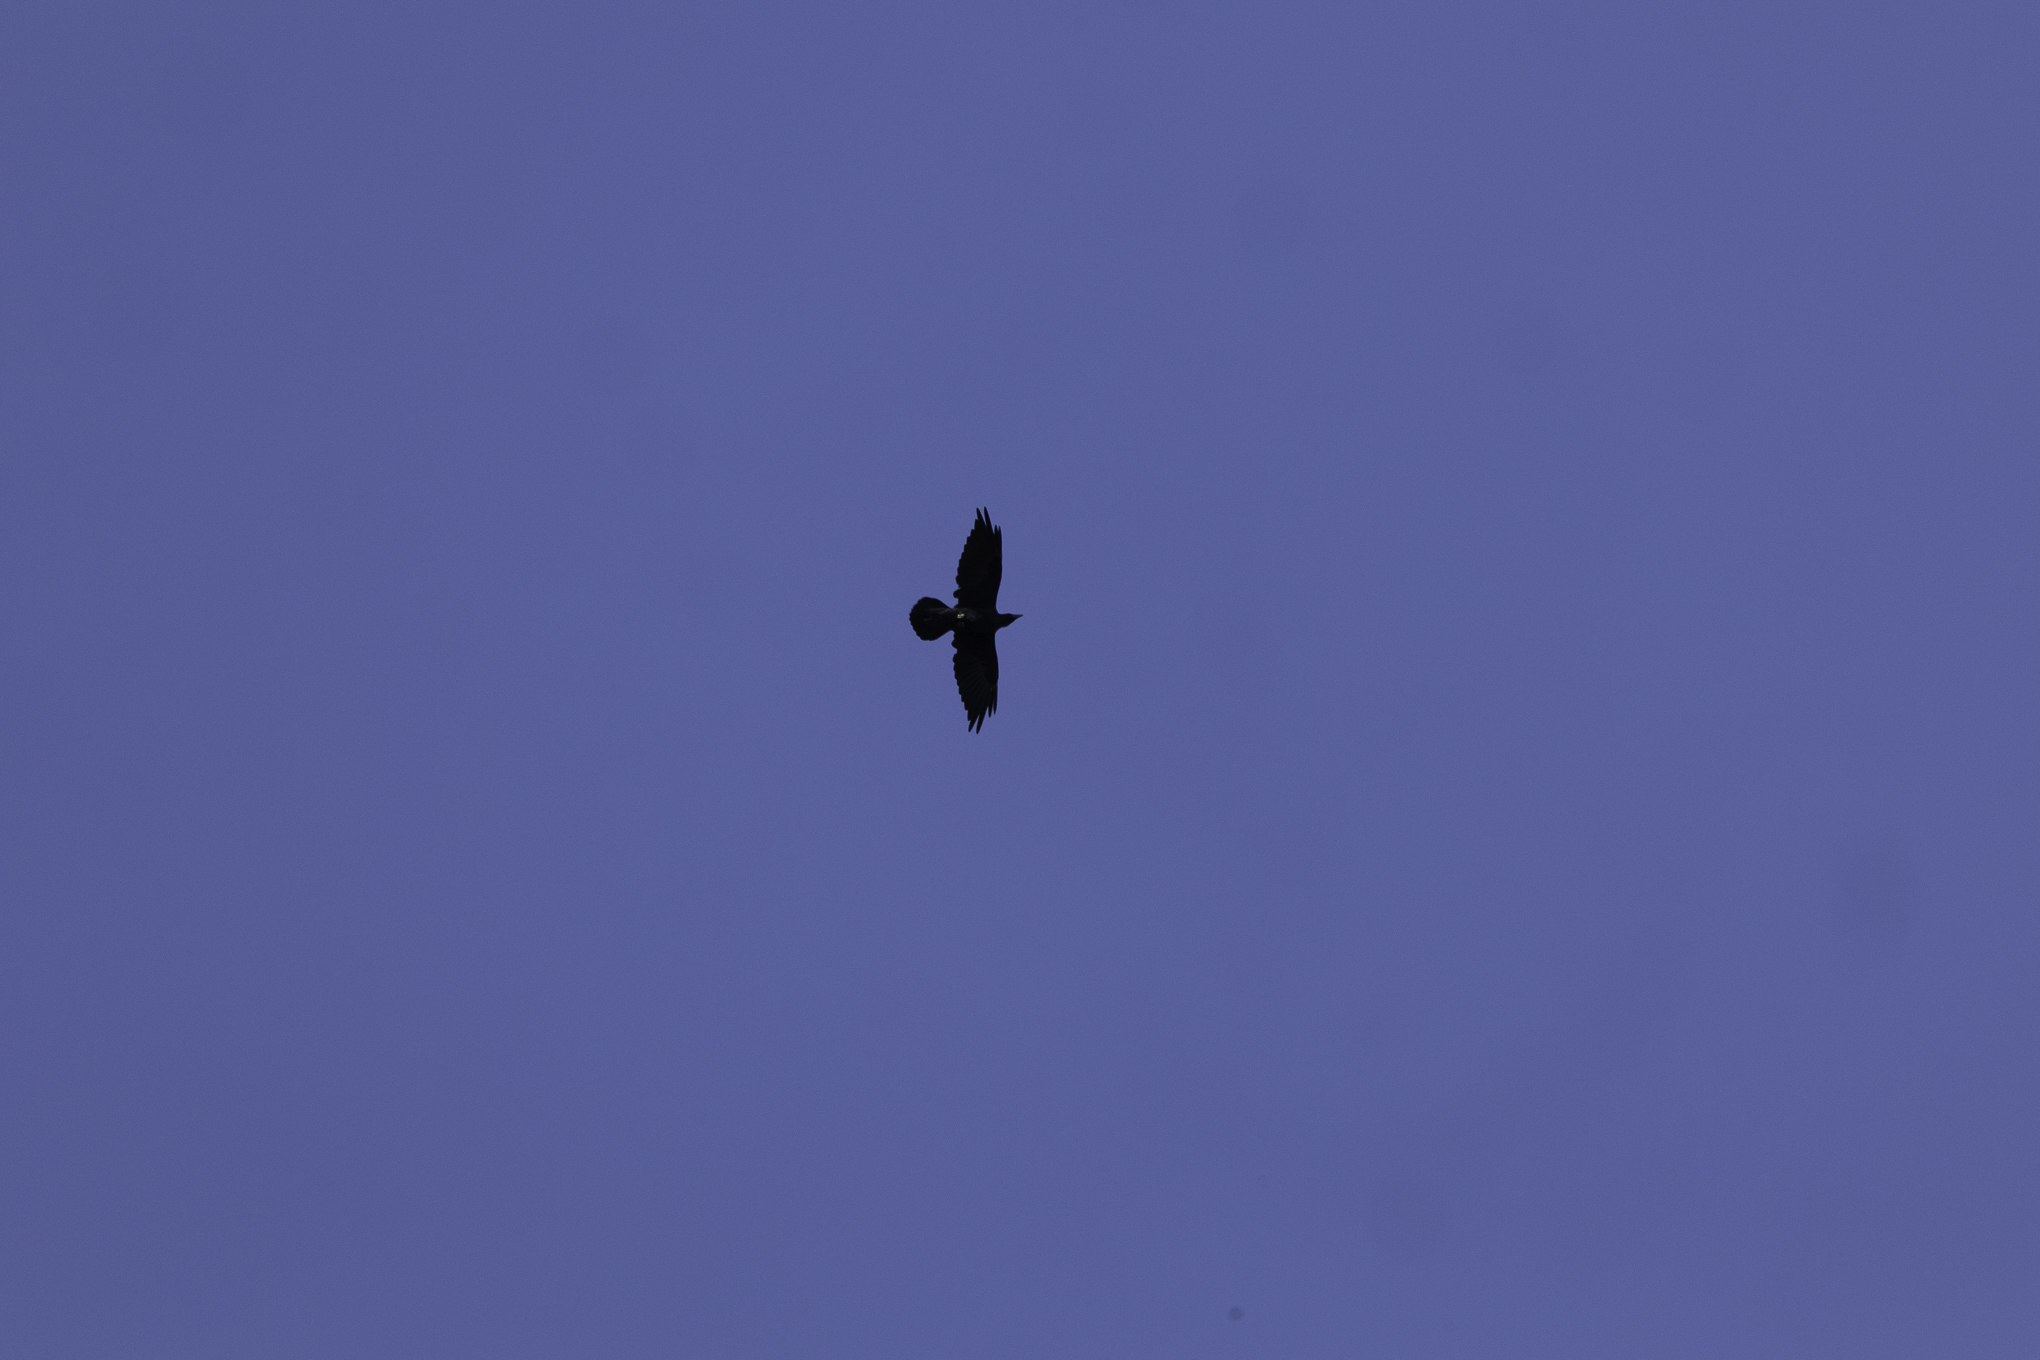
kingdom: Animalia
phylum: Chordata
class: Aves
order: Passeriformes
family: Corvidae
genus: Corvus
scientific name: Corvus corax
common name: Common raven
